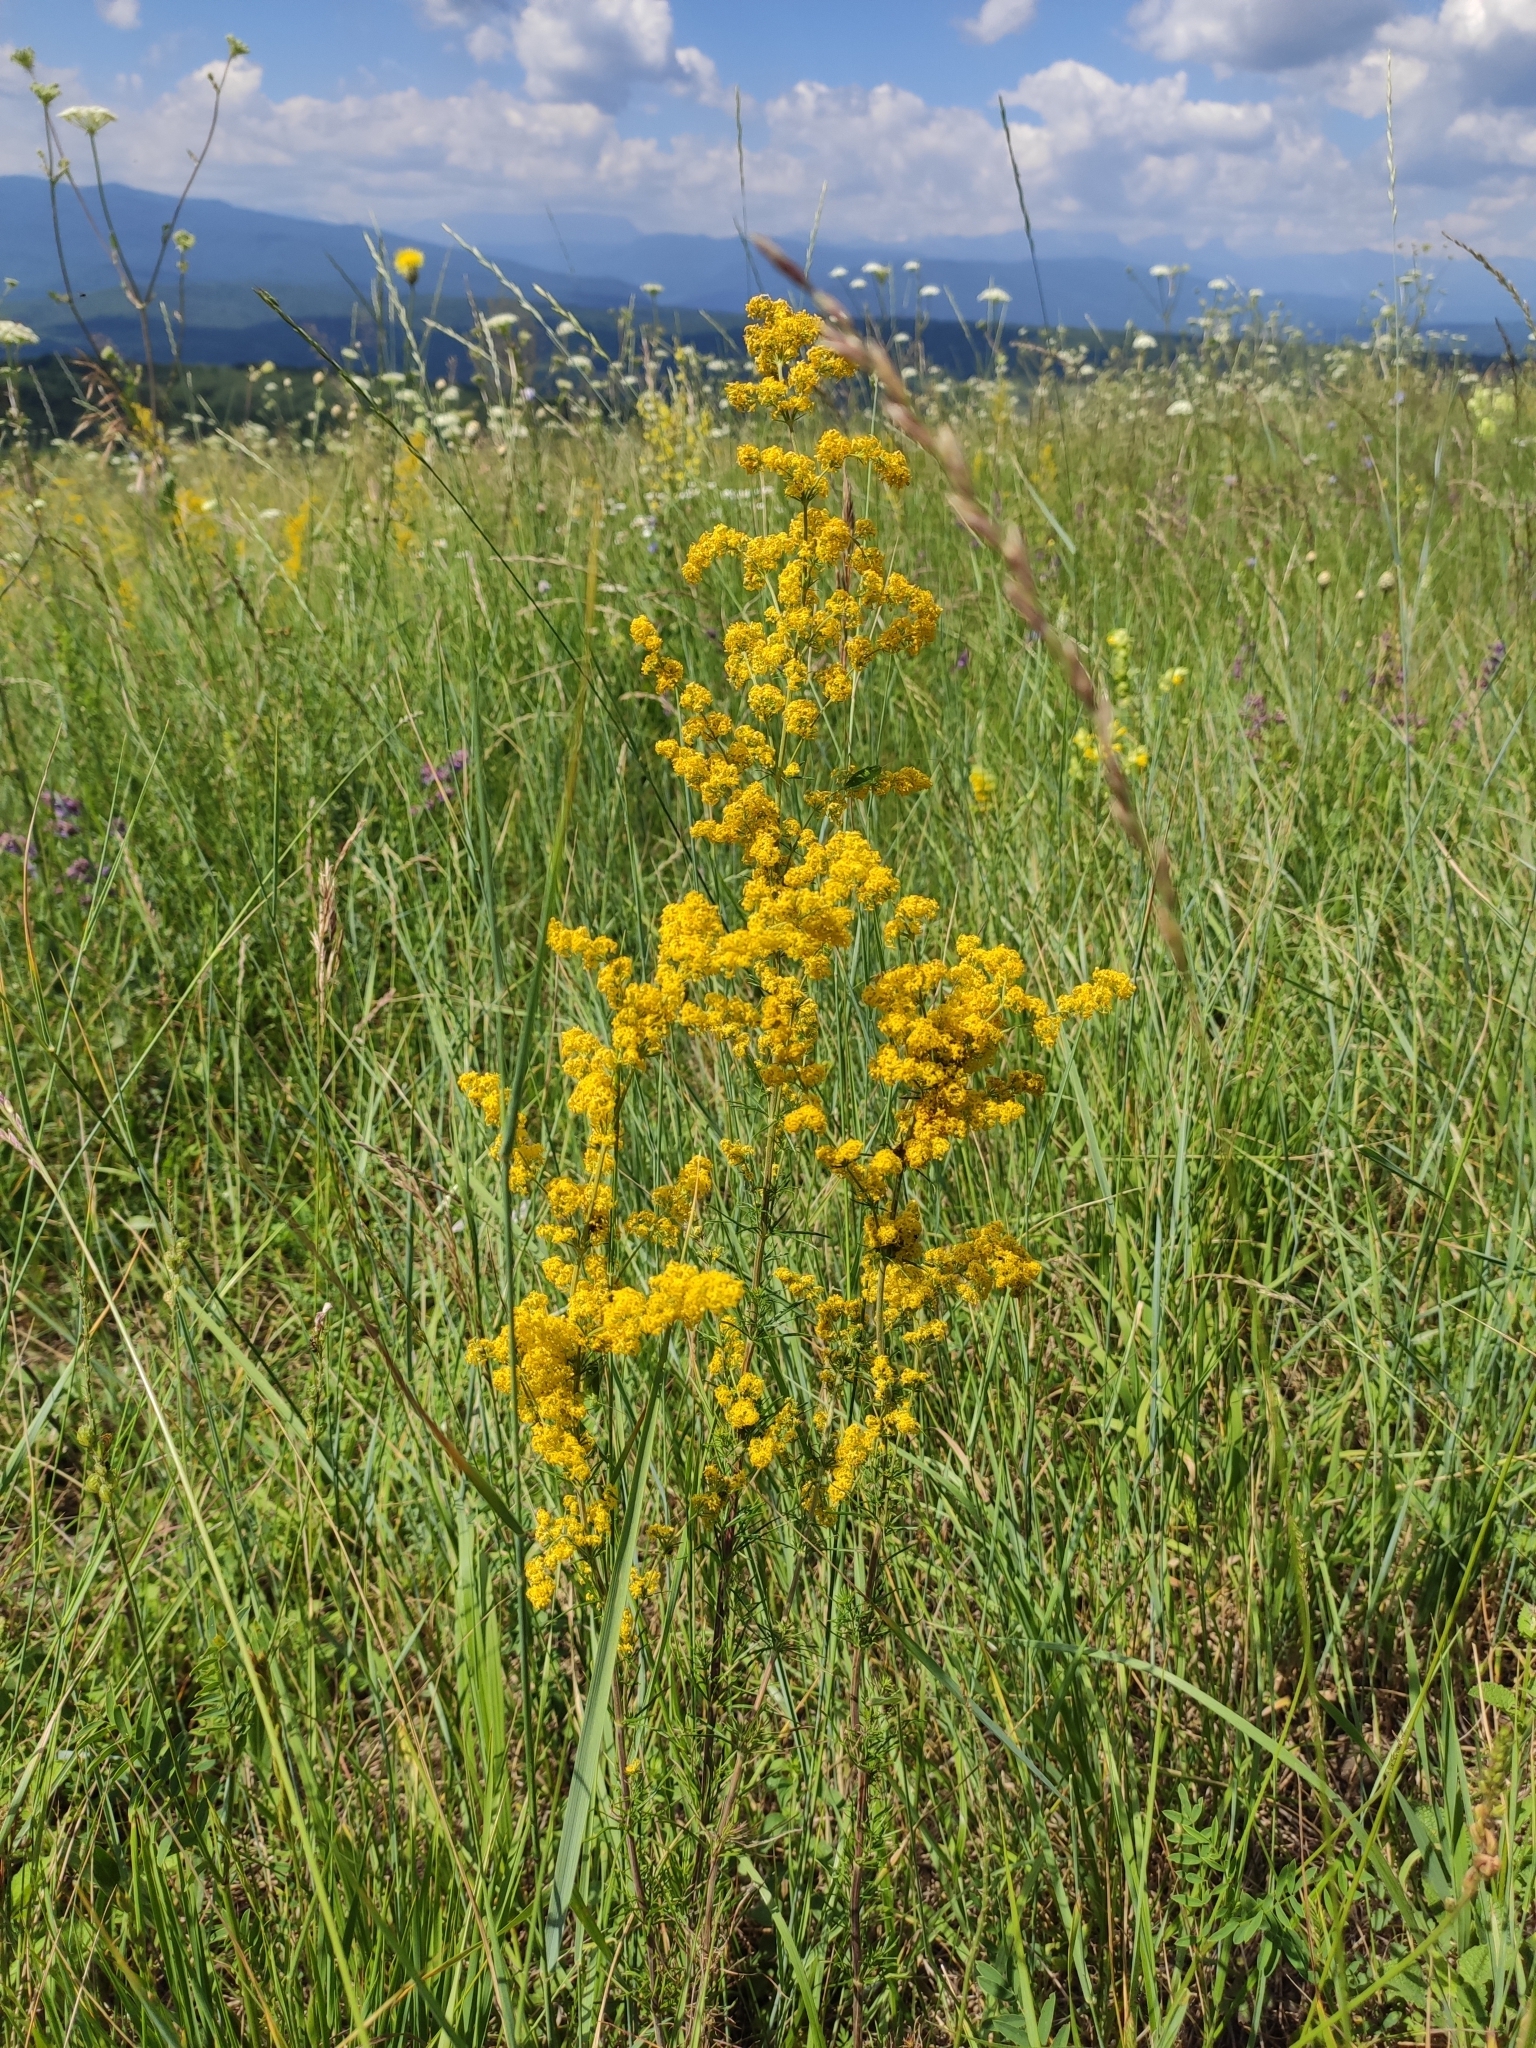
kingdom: Plantae
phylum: Tracheophyta
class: Magnoliopsida
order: Gentianales
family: Rubiaceae
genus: Galium
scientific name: Galium verum
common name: Lady's bedstraw
